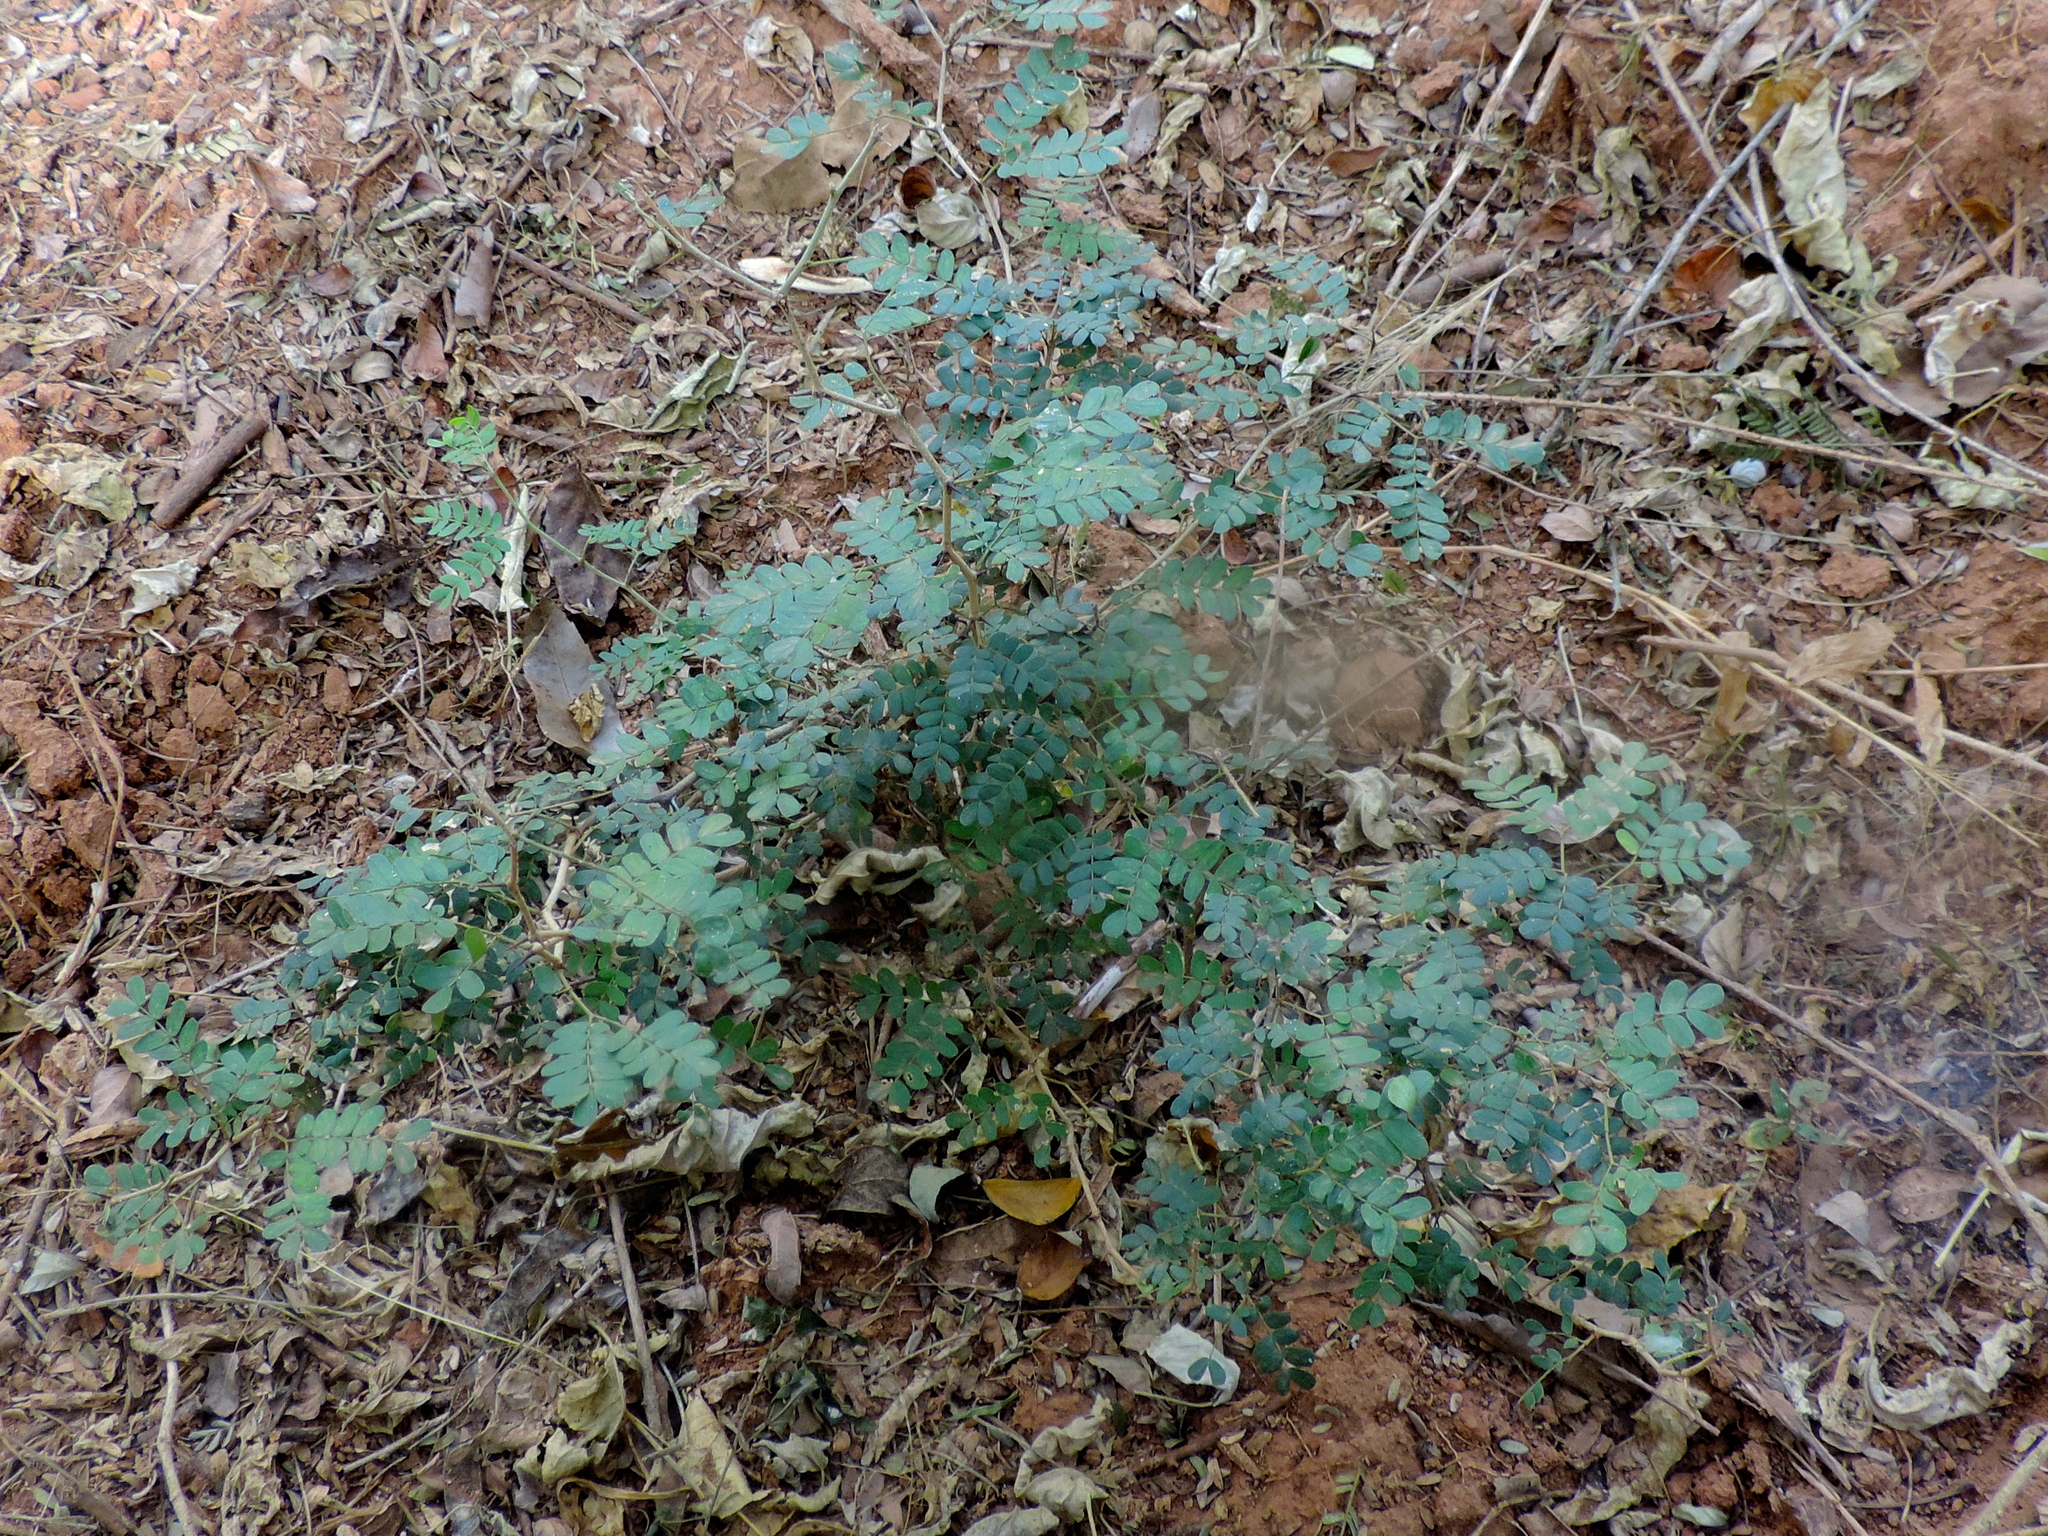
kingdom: Plantae
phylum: Tracheophyta
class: Magnoliopsida
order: Fabales
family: Fabaceae
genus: Chloroleucon
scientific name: Chloroleucon mangense
